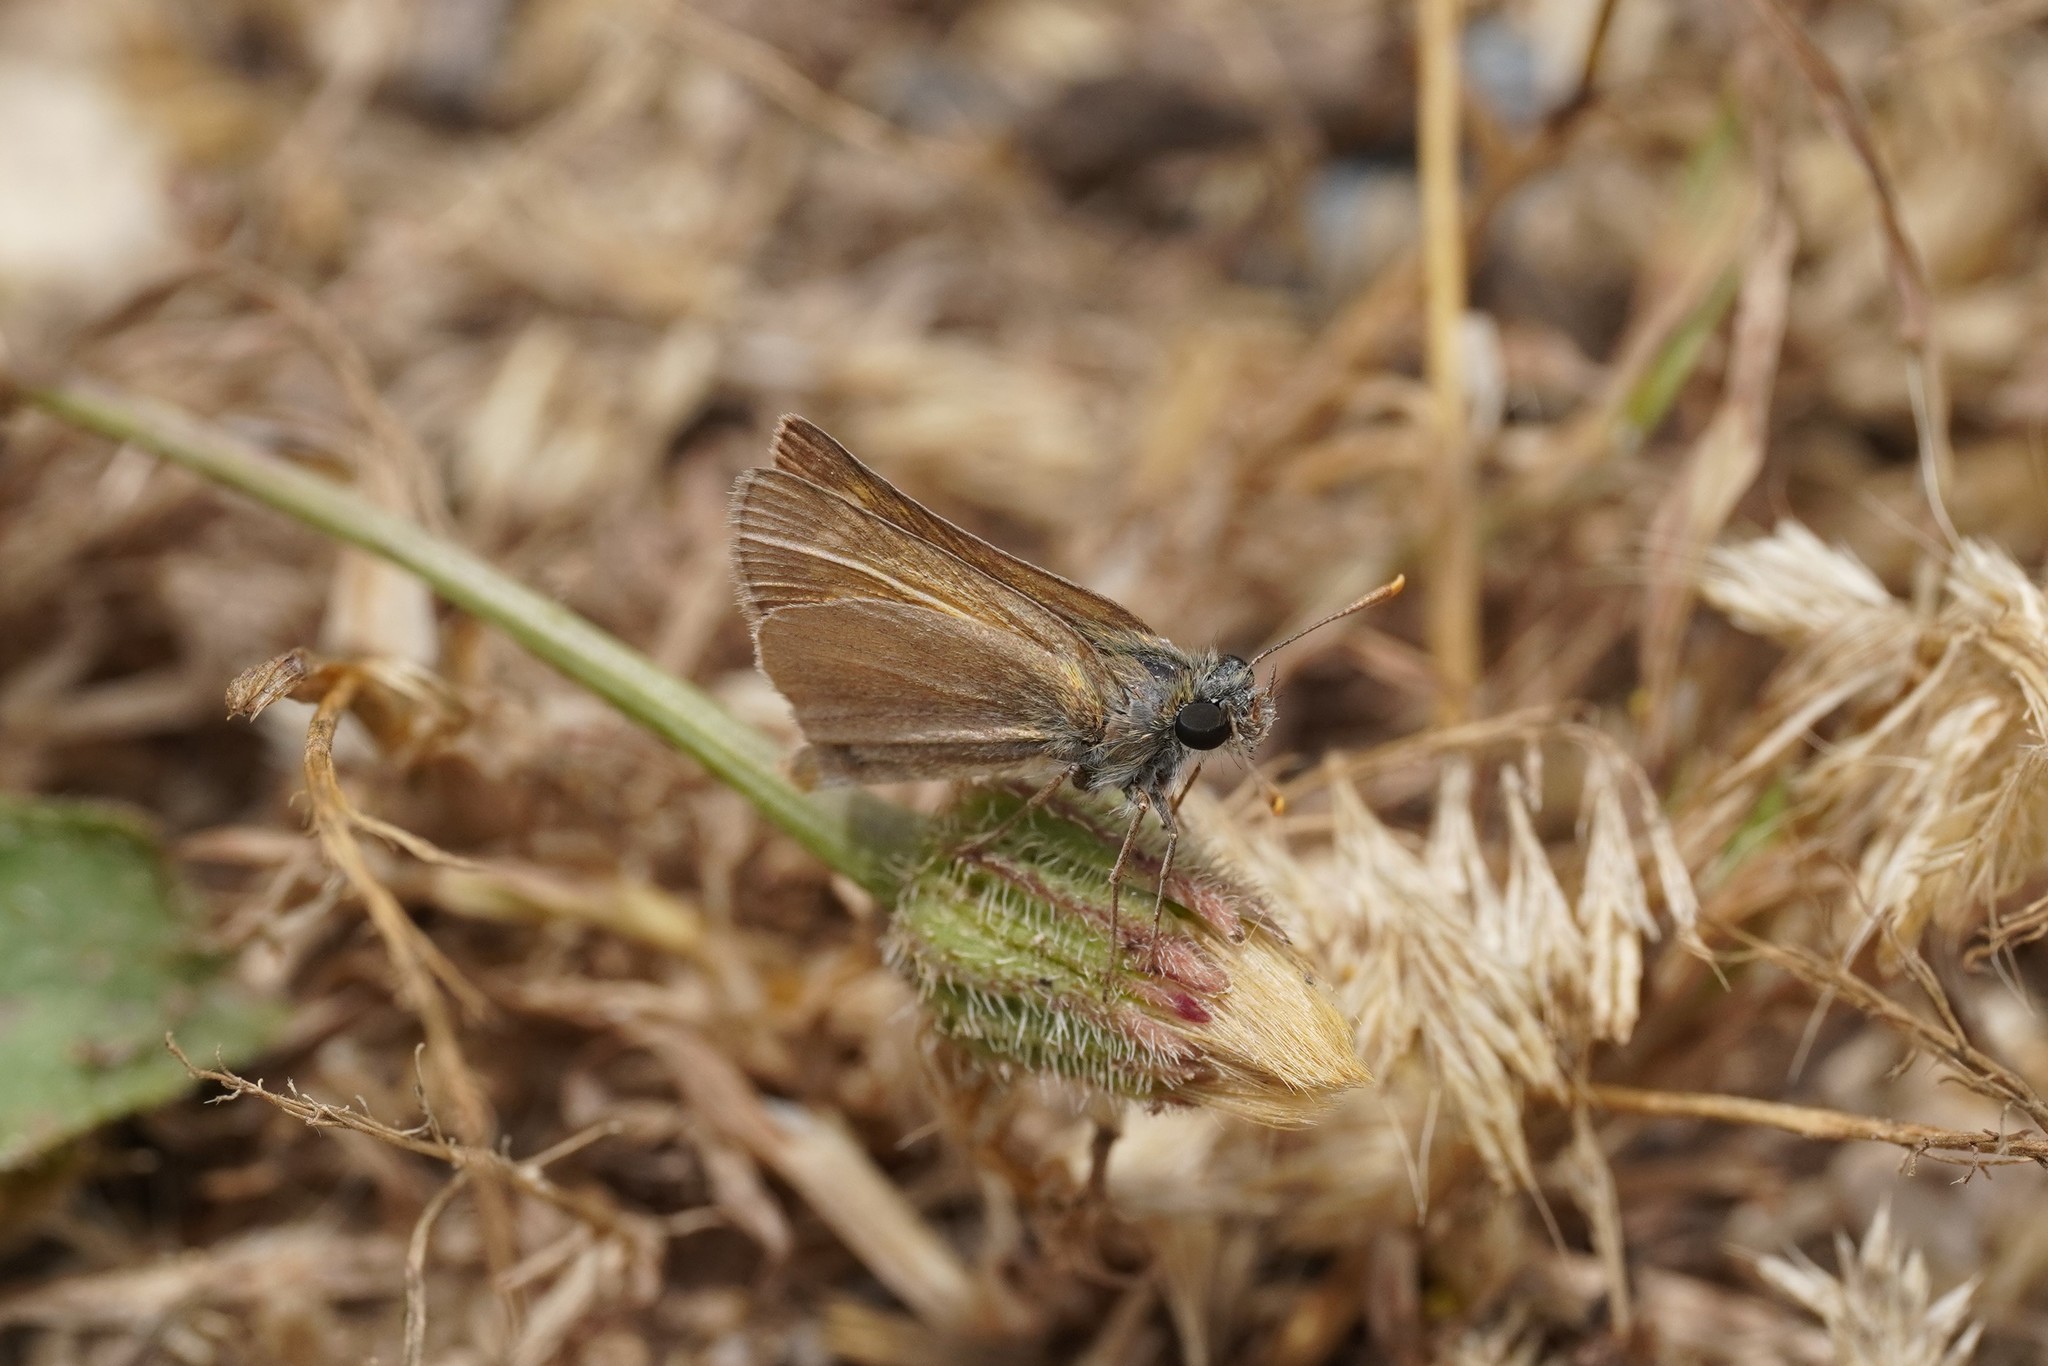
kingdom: Animalia
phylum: Arthropoda
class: Insecta
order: Lepidoptera
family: Hesperiidae
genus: Thymelicus
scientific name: Thymelicus acteon
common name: Lulworth skipper
